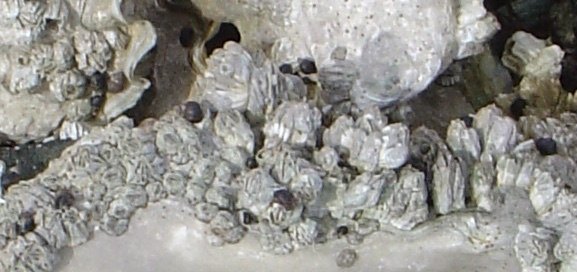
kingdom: Animalia
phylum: Arthropoda
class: Maxillopoda
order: Sessilia
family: Balanidae
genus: Balanus
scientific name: Balanus glandula
